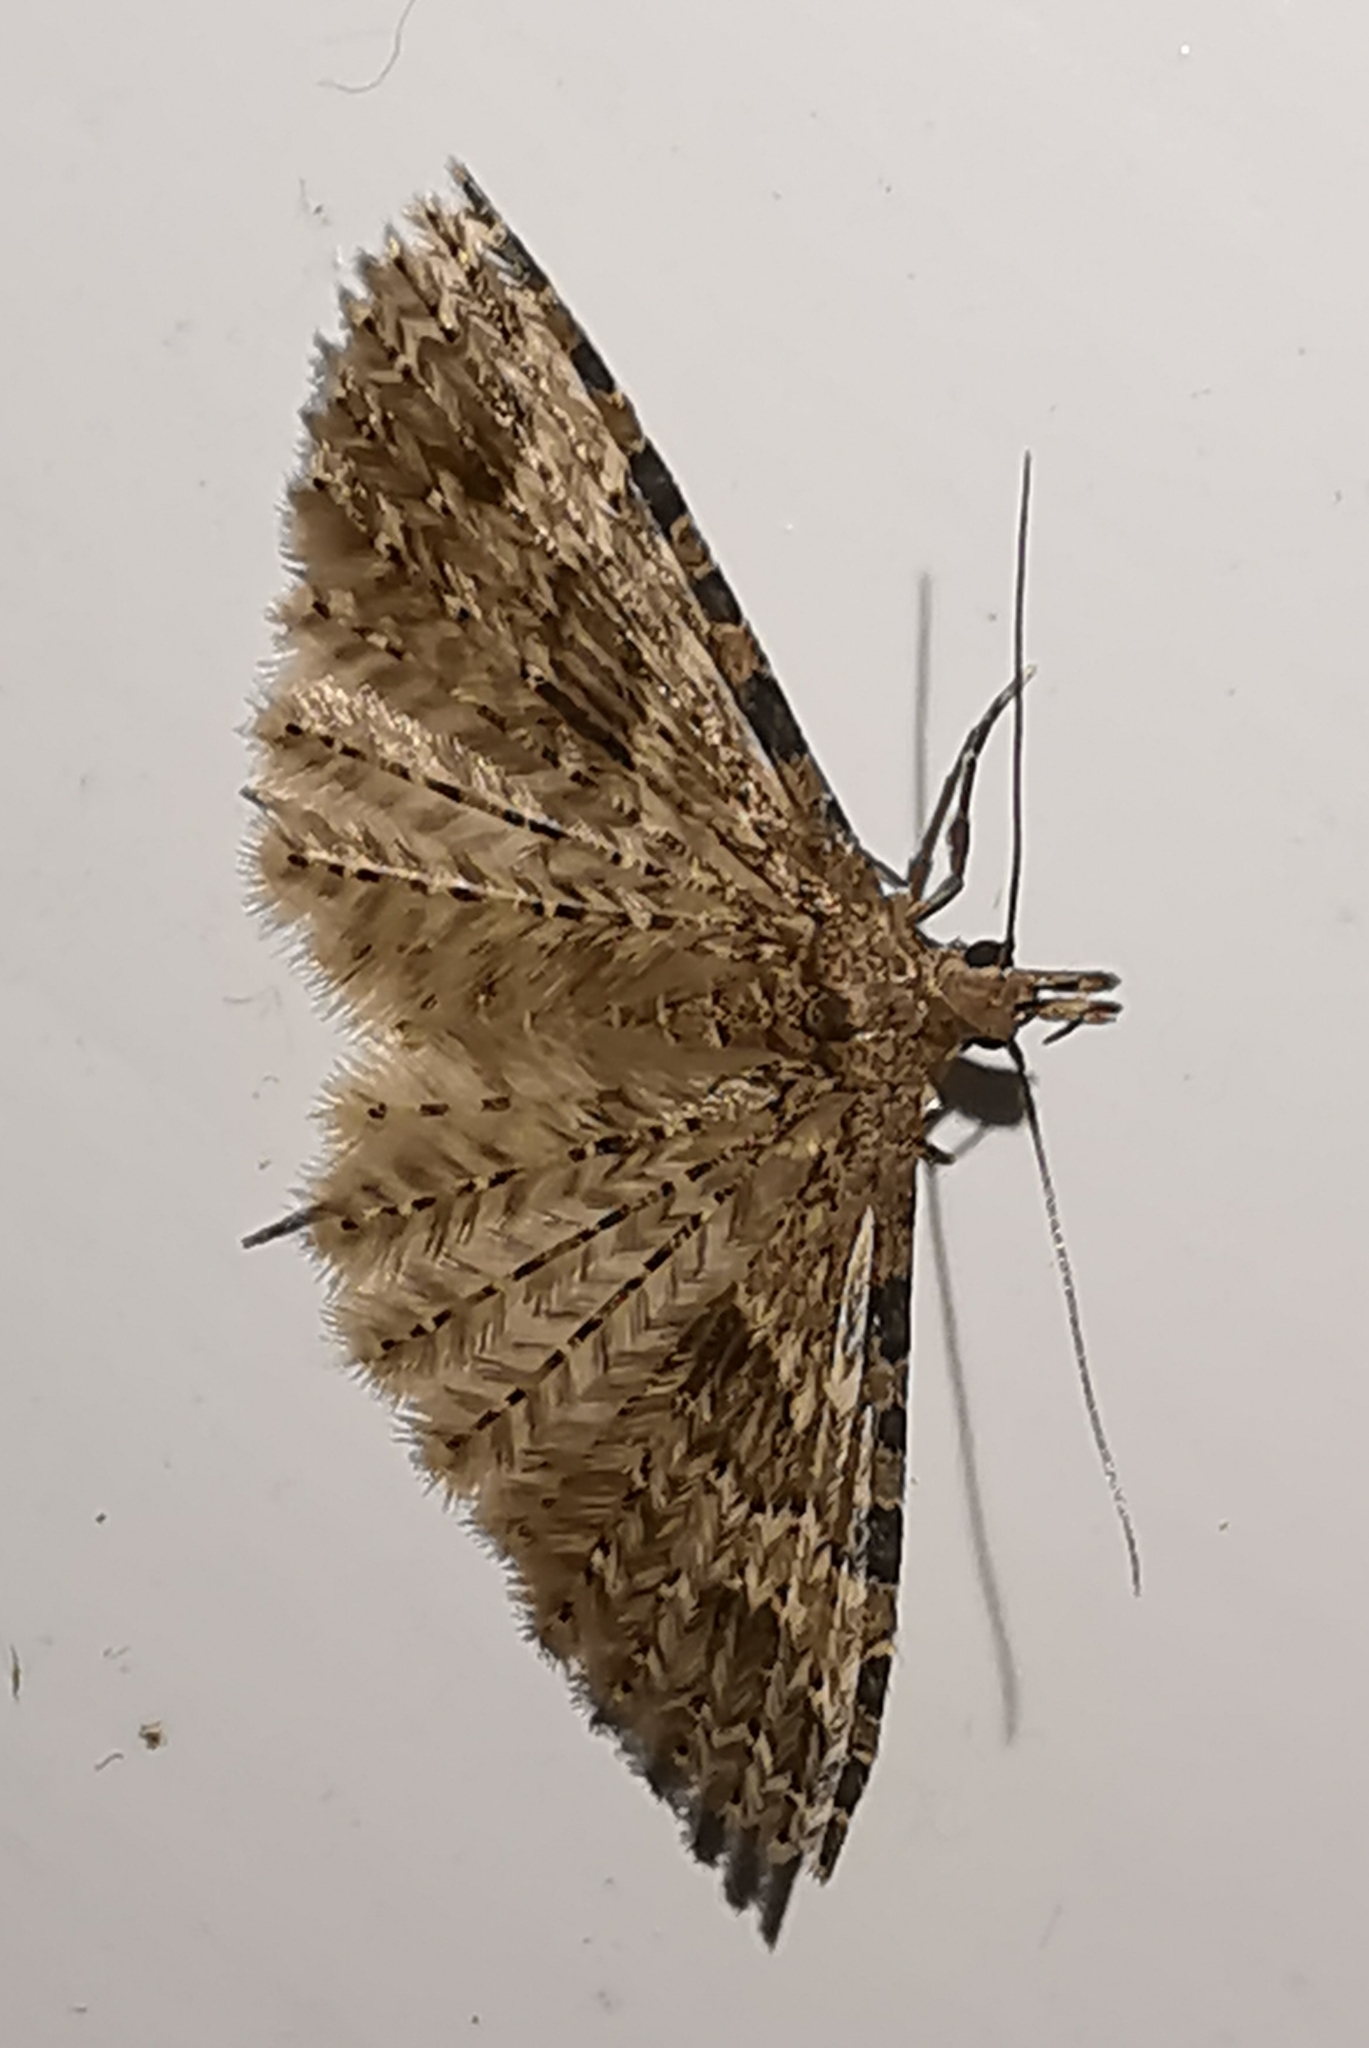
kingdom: Animalia
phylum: Arthropoda
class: Insecta
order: Lepidoptera
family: Alucitidae
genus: Alucita
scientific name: Alucita hexadactyla
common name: Twenty-plume moth
